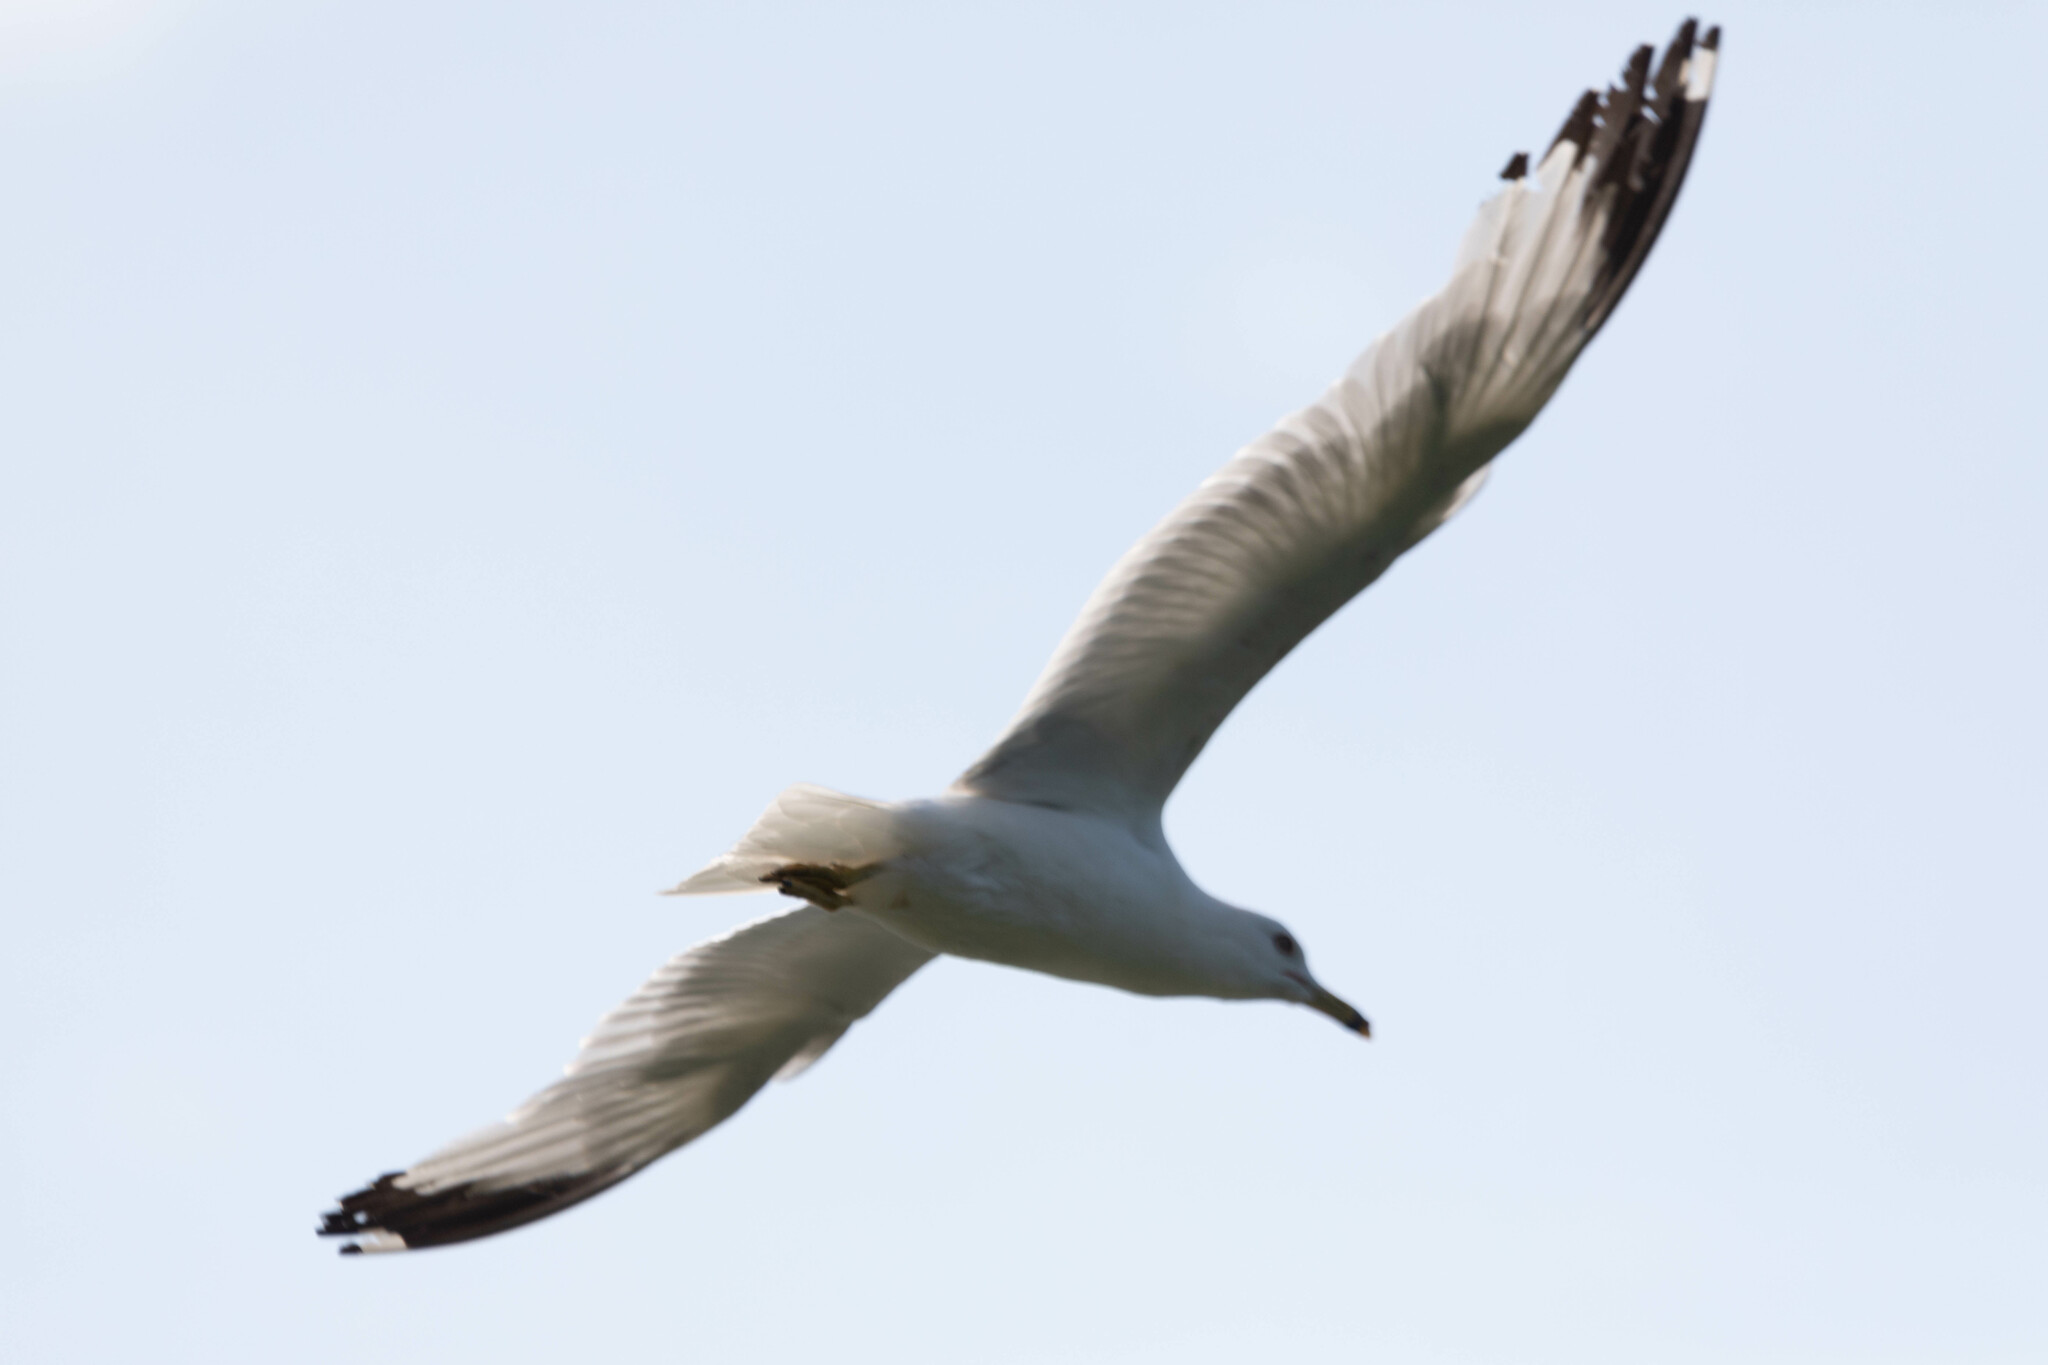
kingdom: Animalia
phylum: Chordata
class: Aves
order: Charadriiformes
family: Laridae
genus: Larus
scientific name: Larus delawarensis
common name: Ring-billed gull
